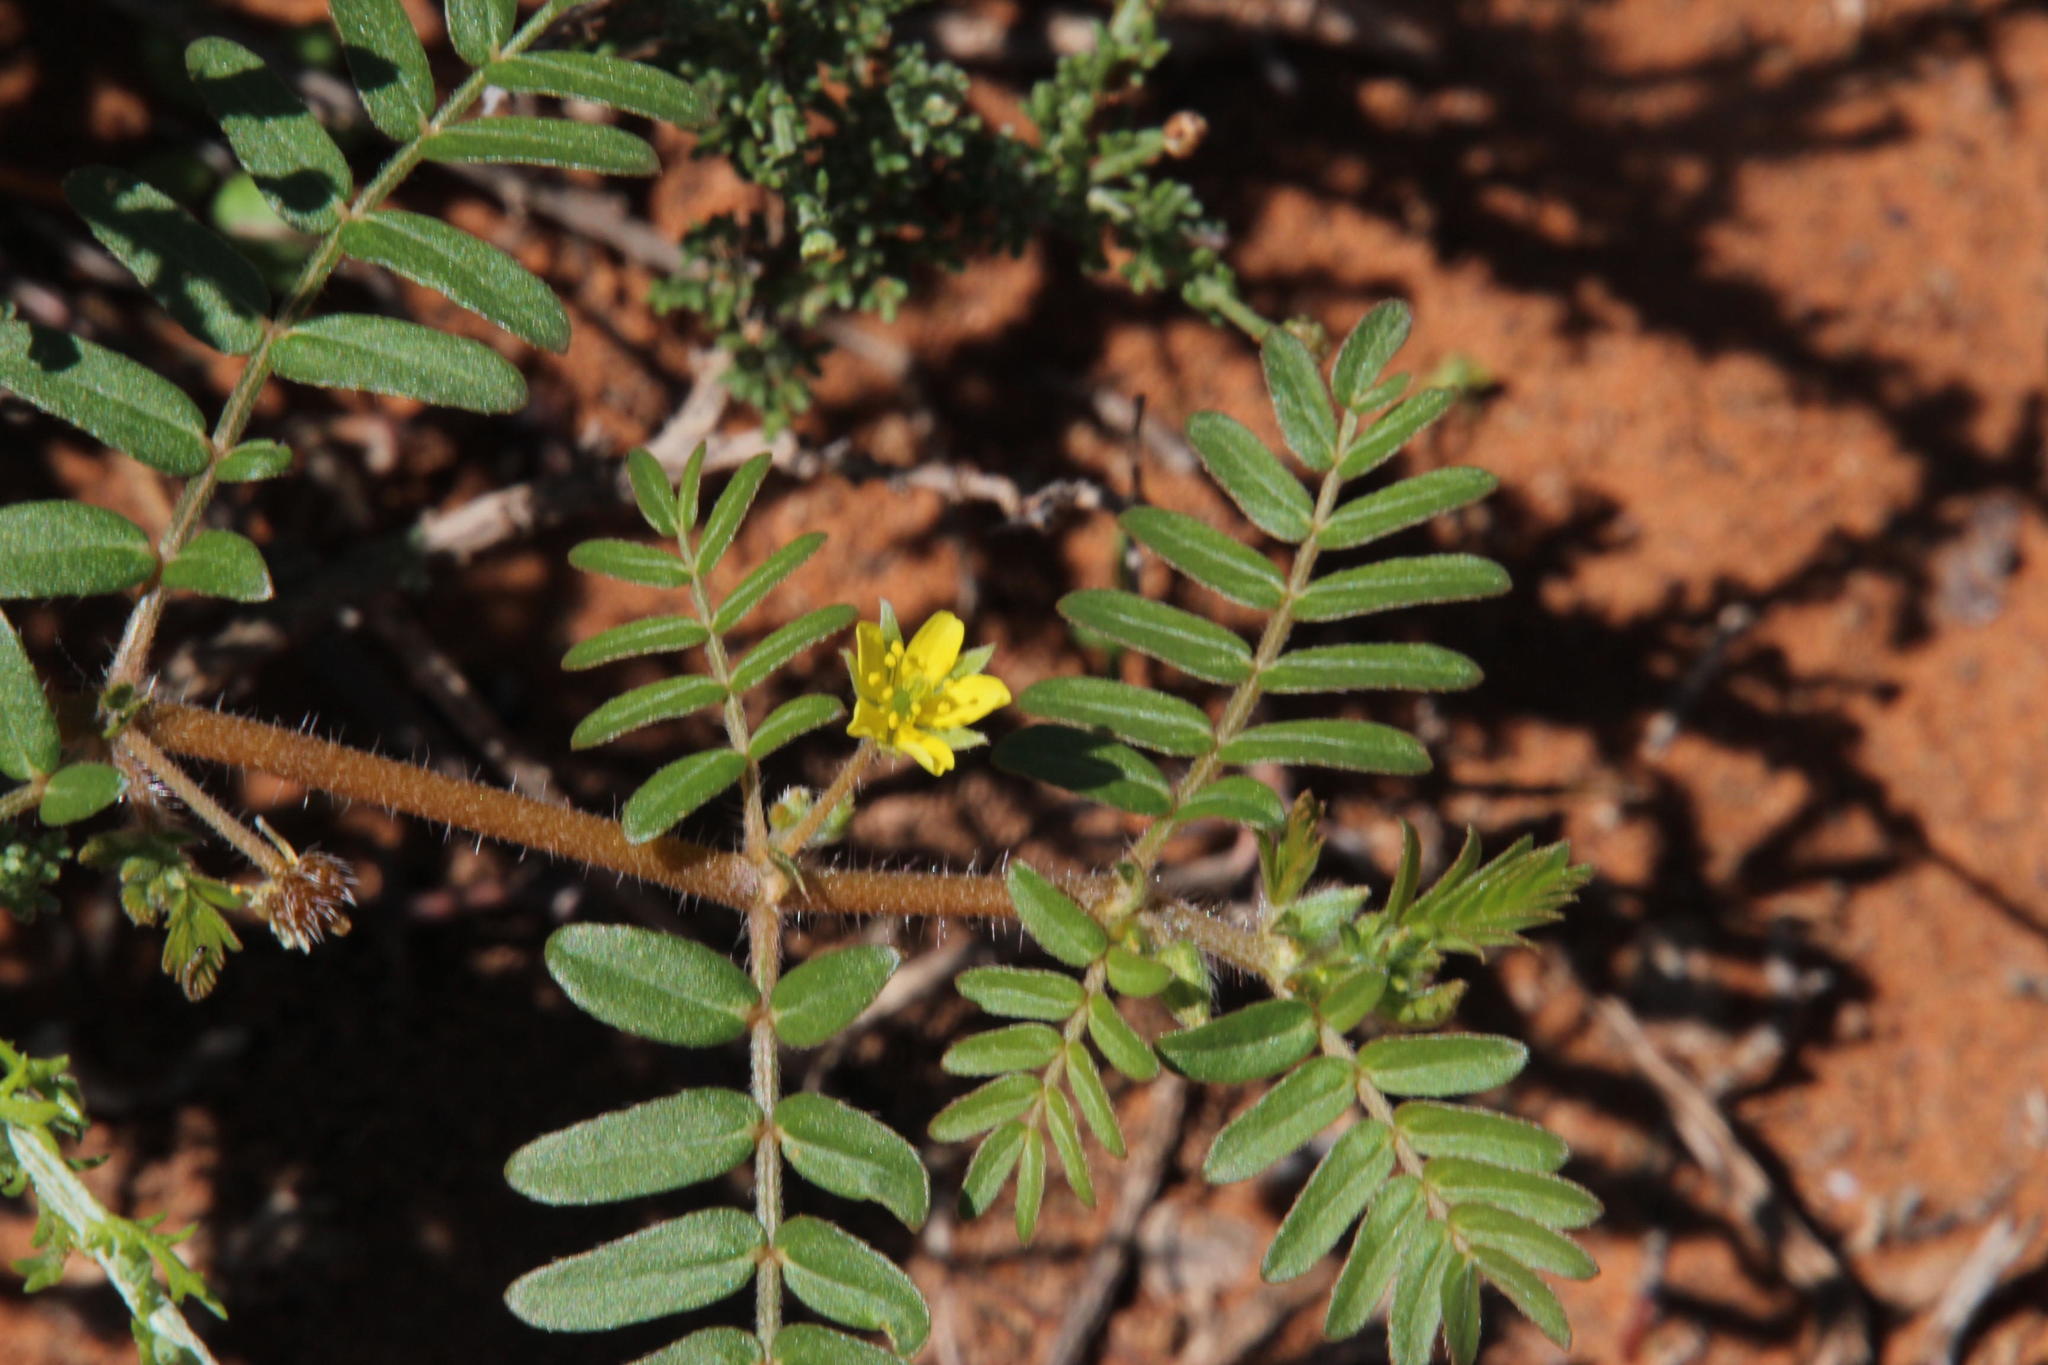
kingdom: Plantae
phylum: Tracheophyta
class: Magnoliopsida
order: Zygophyllales
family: Zygophyllaceae
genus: Tribulus
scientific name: Tribulus terrestris
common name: Puncturevine
